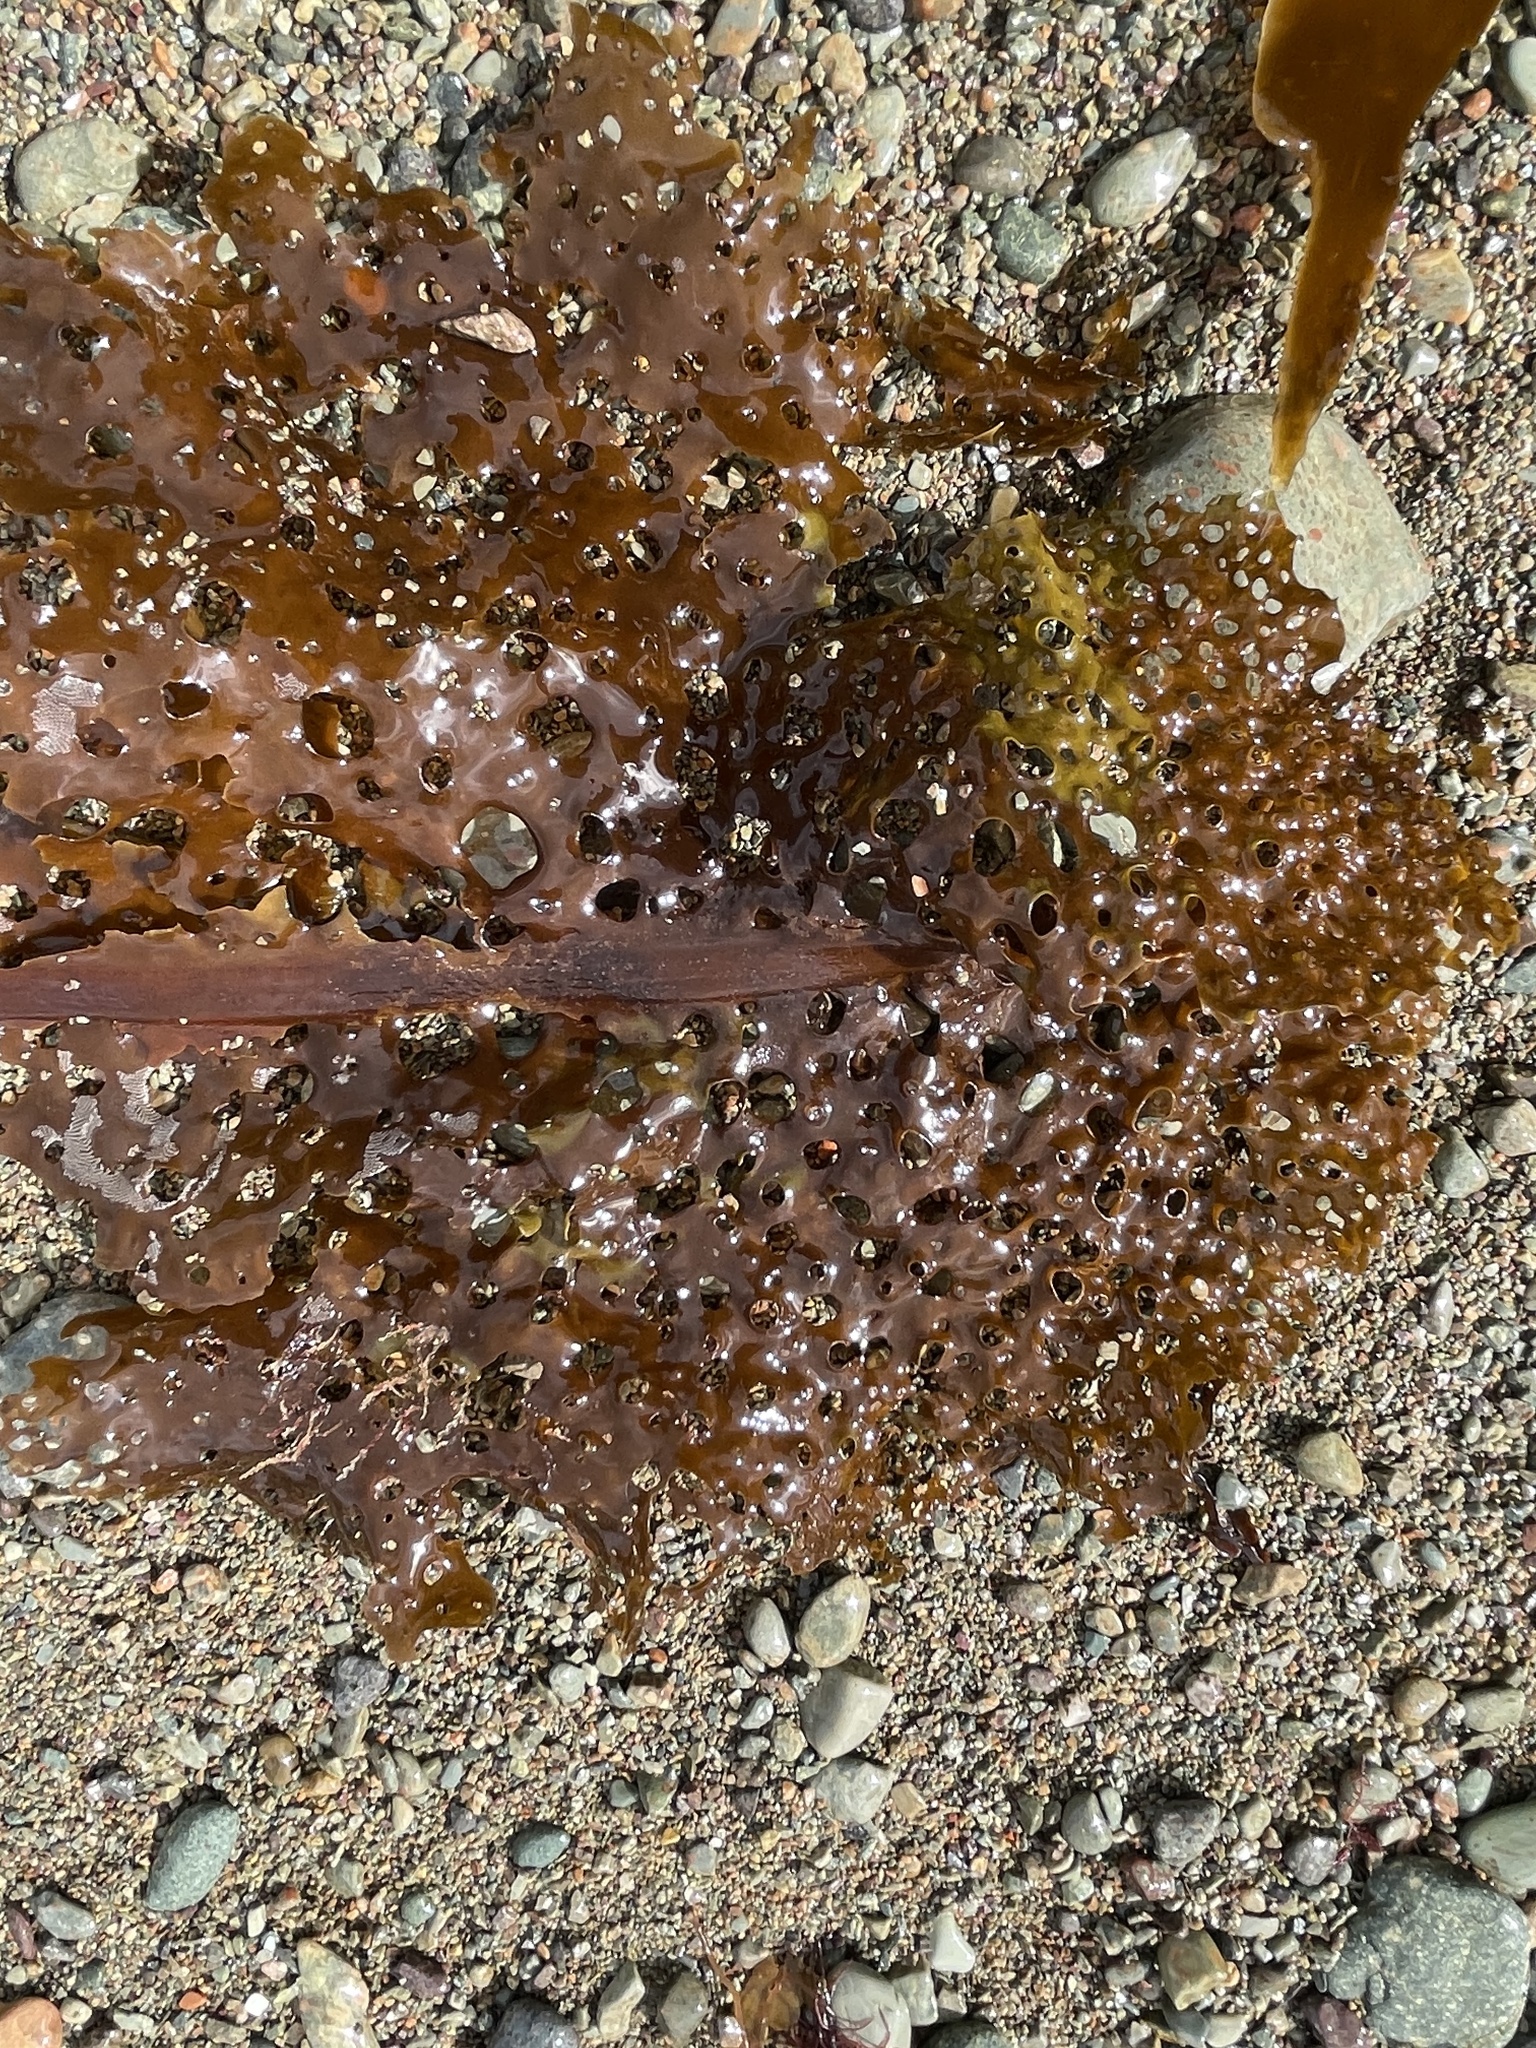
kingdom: Chromista
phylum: Ochrophyta
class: Phaeophyceae
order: Laminariales
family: Costariaceae
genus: Agarum
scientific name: Agarum clathratum
